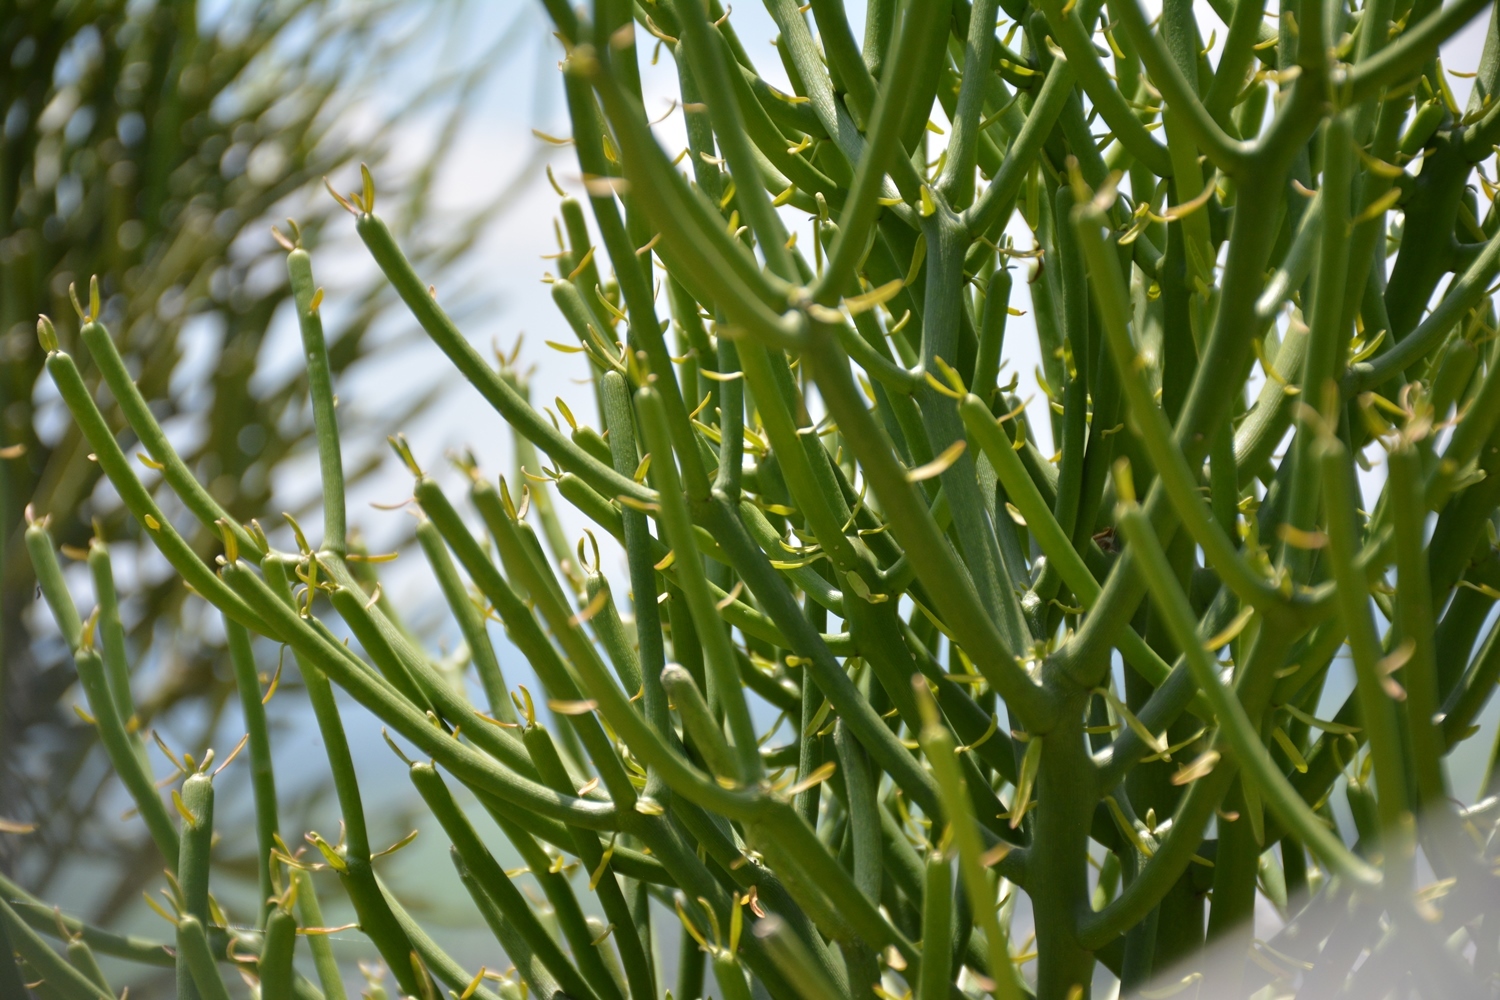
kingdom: Plantae
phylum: Tracheophyta
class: Magnoliopsida
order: Malpighiales
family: Euphorbiaceae
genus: Euphorbia
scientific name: Euphorbia tirucalli
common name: Indiantree spurge
